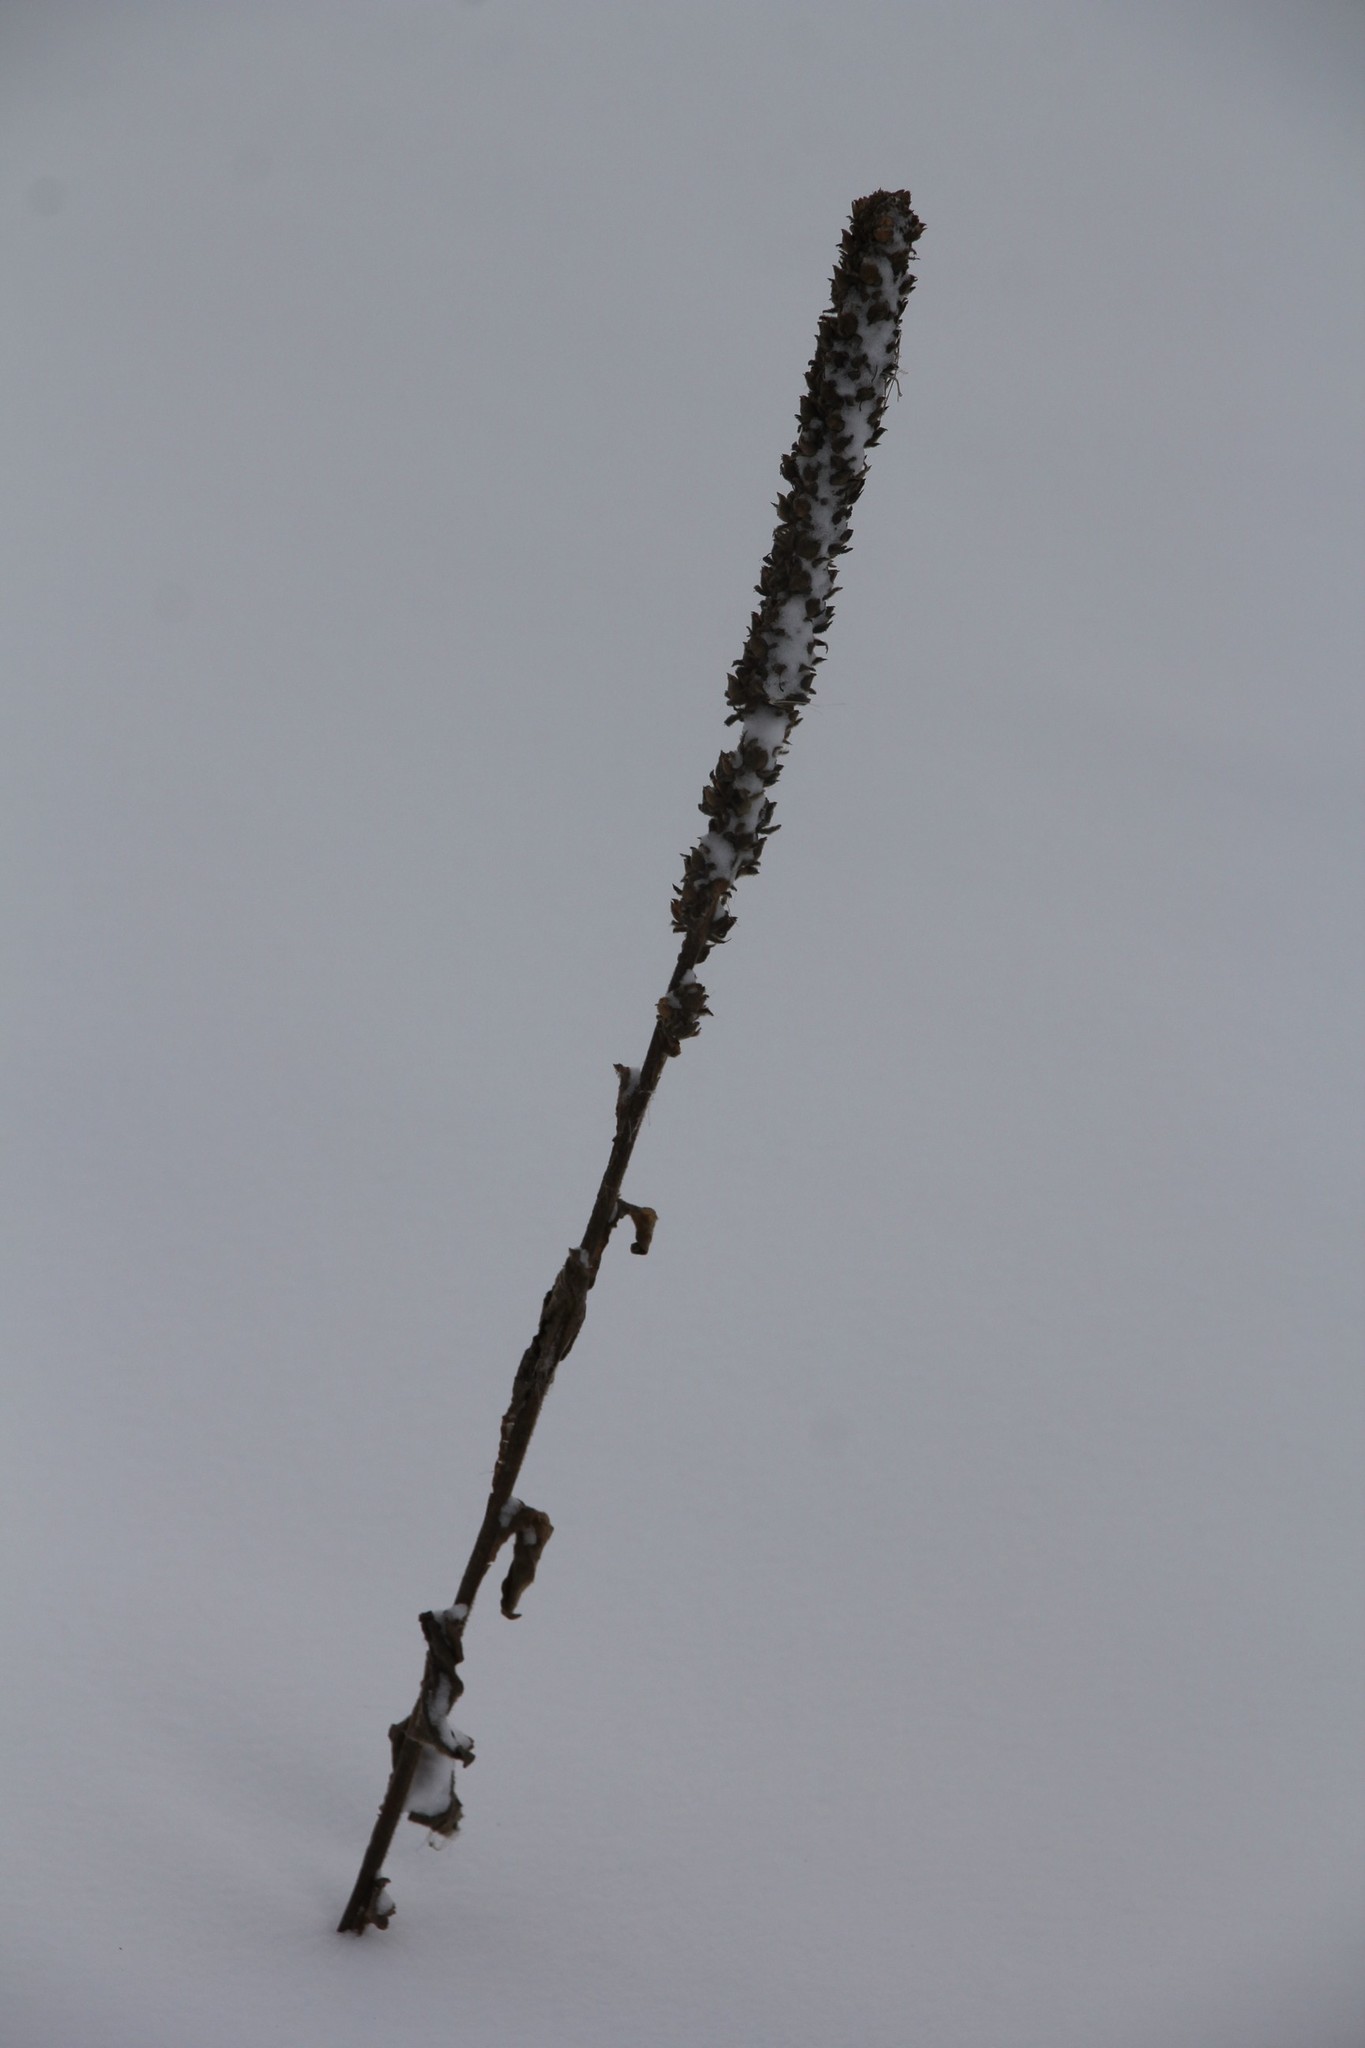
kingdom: Plantae
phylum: Tracheophyta
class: Magnoliopsida
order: Lamiales
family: Scrophulariaceae
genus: Verbascum
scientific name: Verbascum thapsus
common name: Common mullein
